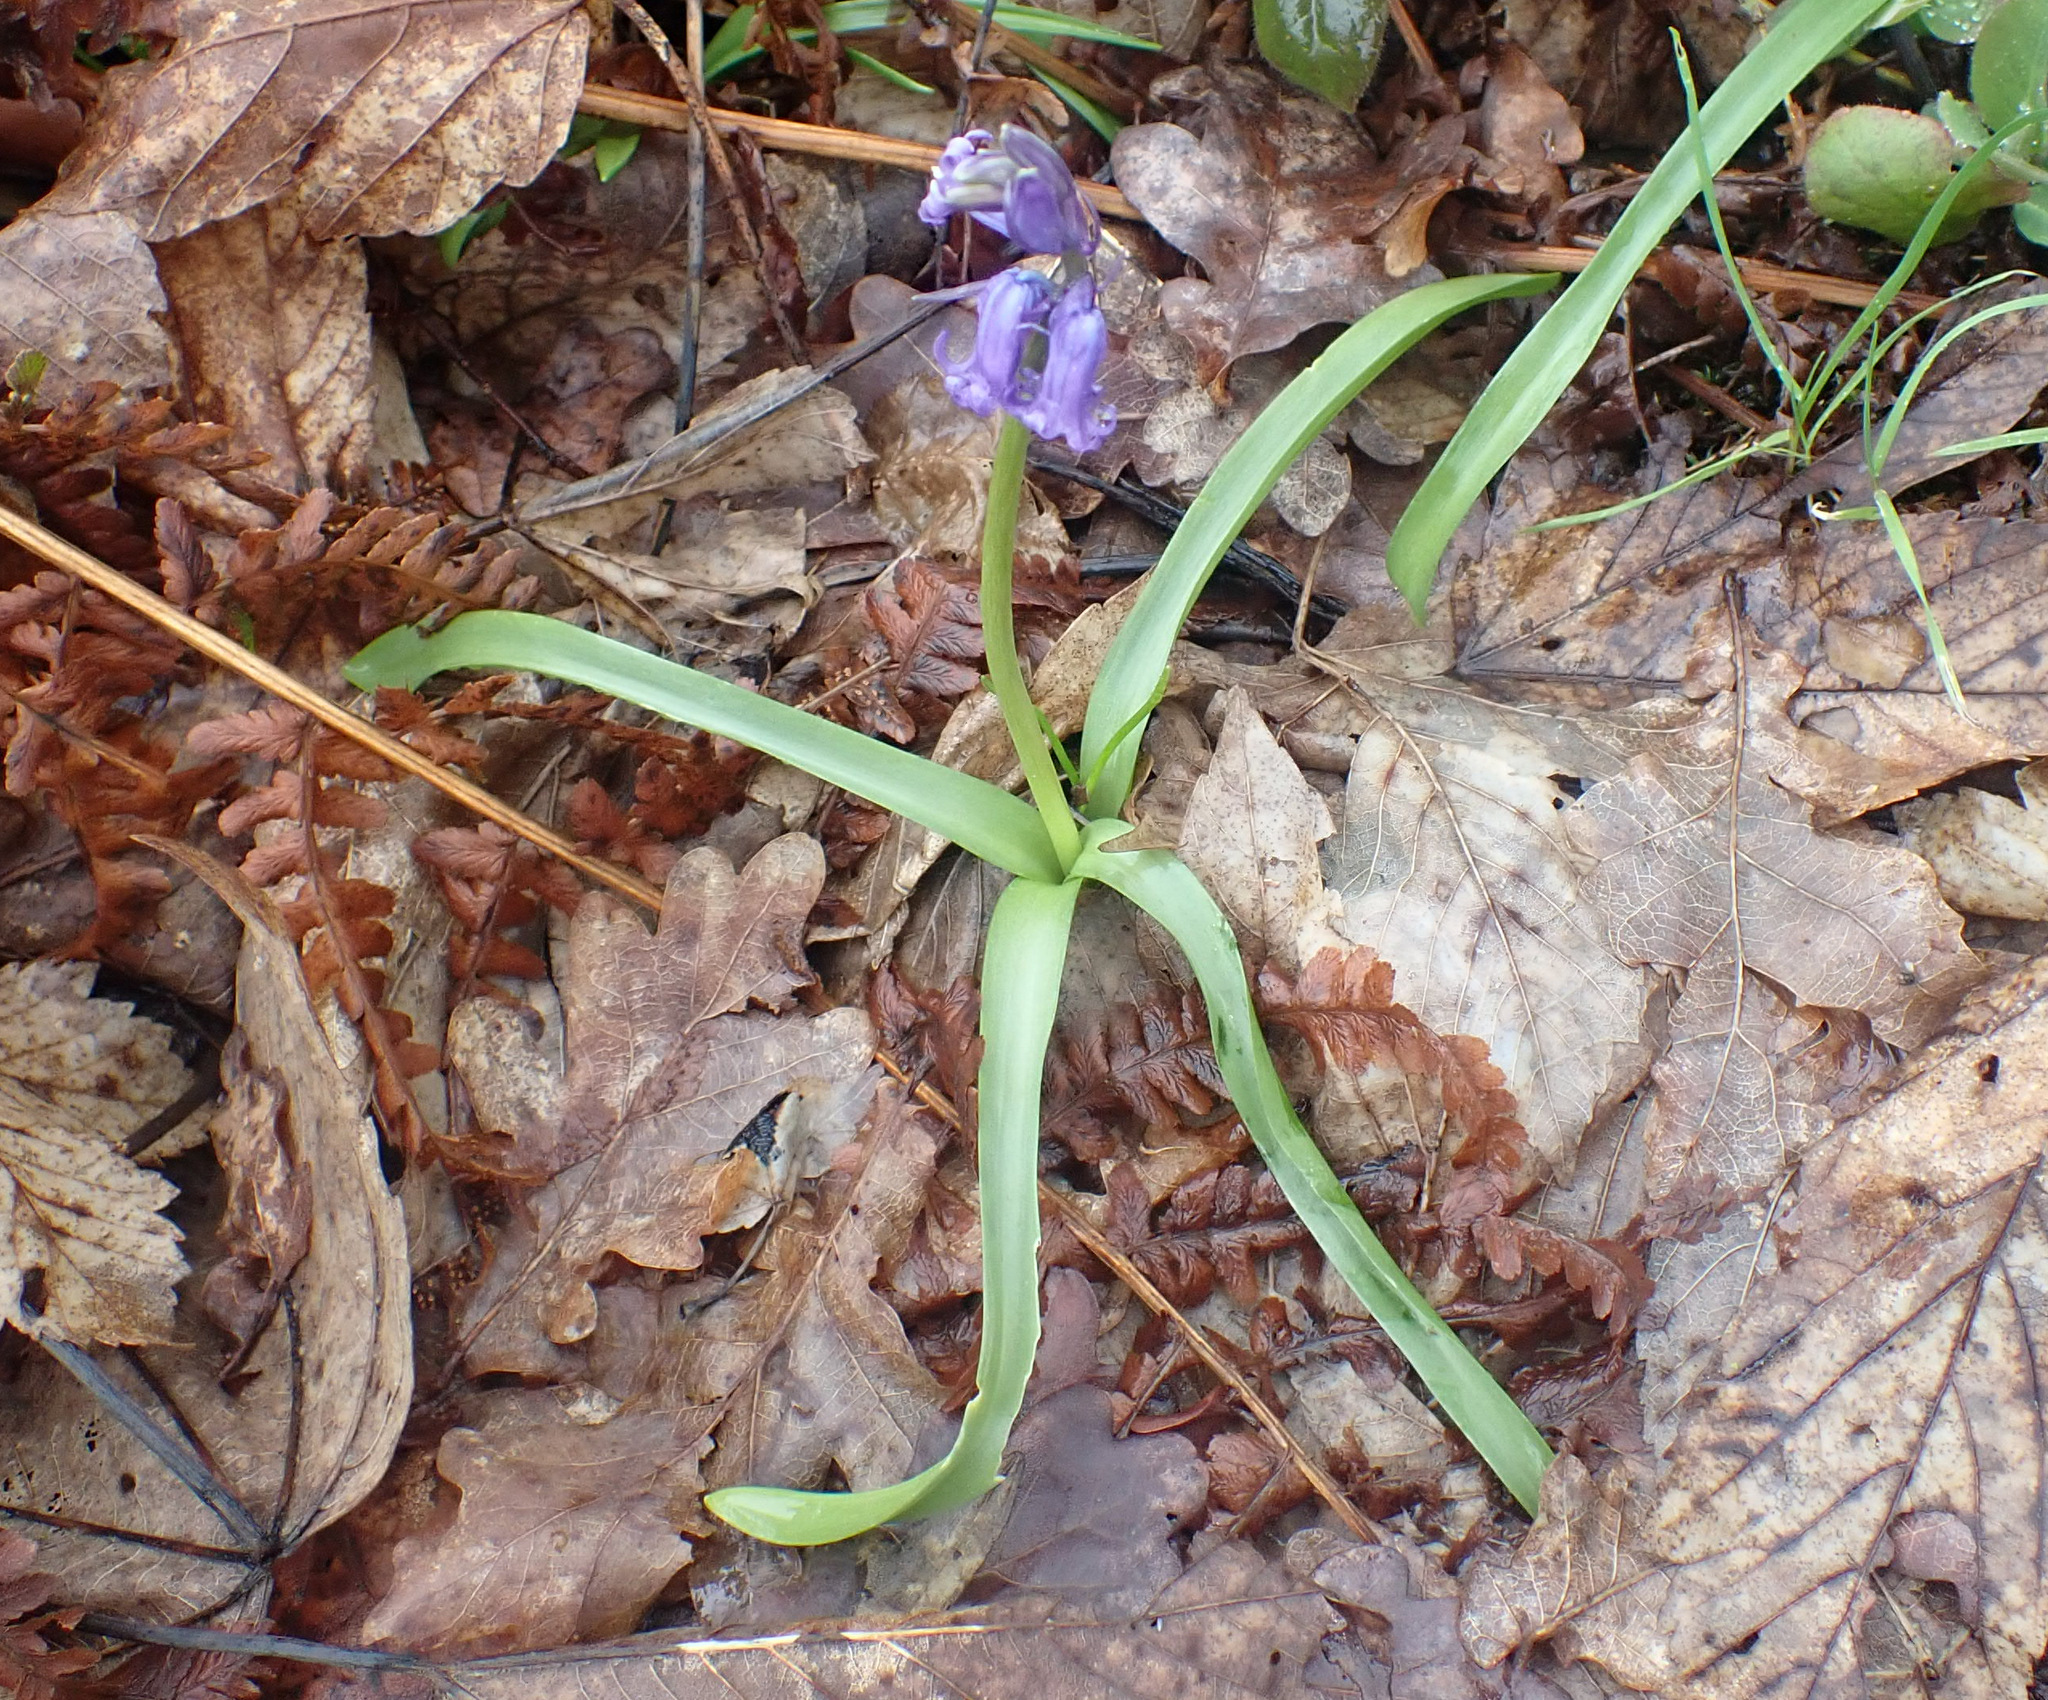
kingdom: Plantae
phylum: Tracheophyta
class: Liliopsida
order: Asparagales
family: Asparagaceae
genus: Hyacinthoides
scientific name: Hyacinthoides non-scripta
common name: Bluebell
